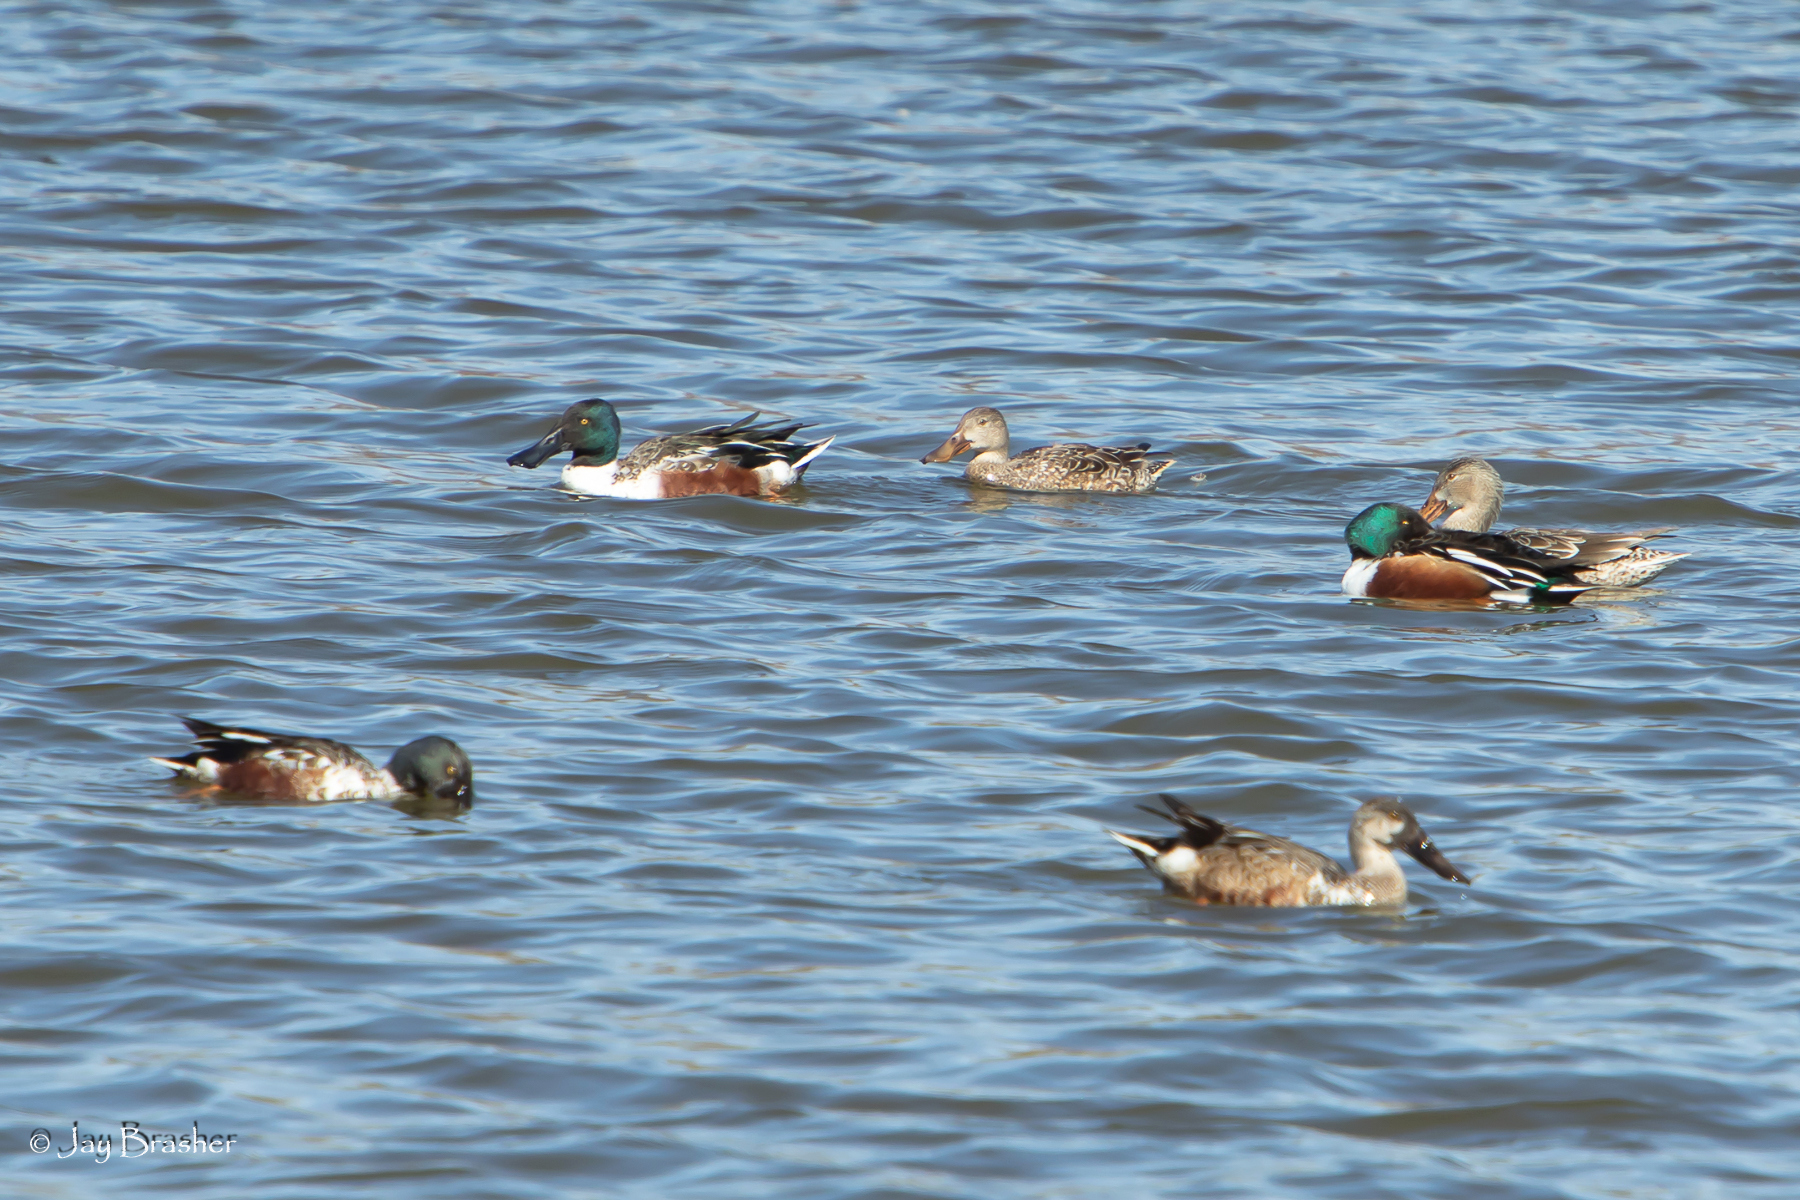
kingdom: Animalia
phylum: Chordata
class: Aves
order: Anseriformes
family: Anatidae
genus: Spatula
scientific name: Spatula clypeata
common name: Northern shoveler
